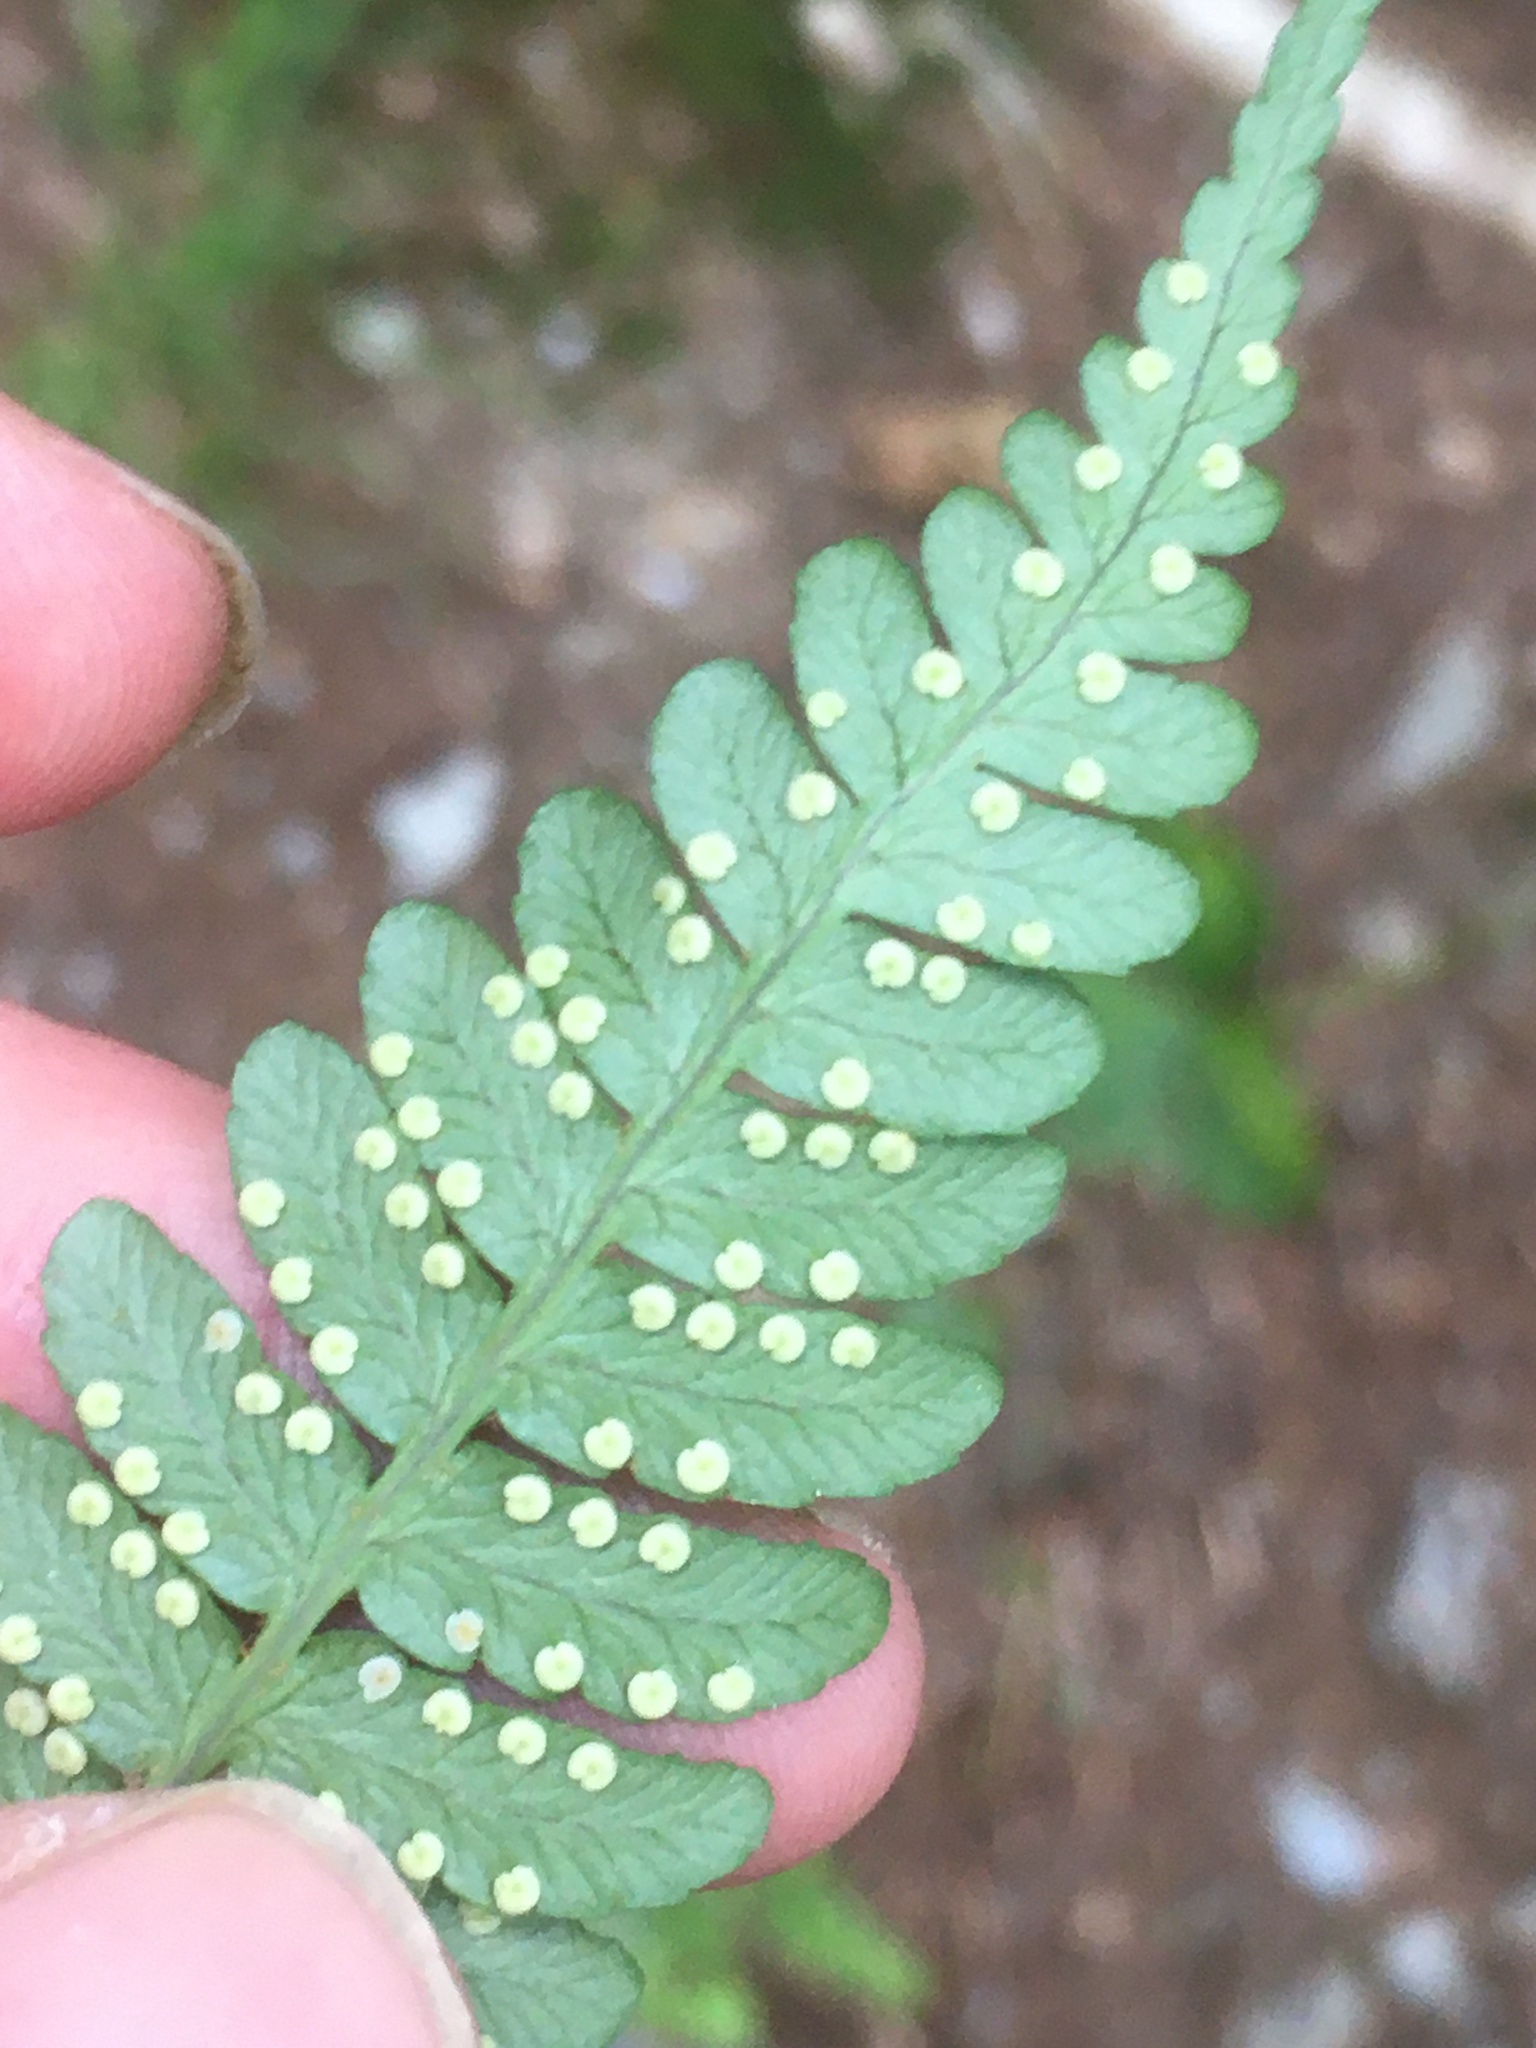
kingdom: Plantae
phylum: Tracheophyta
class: Polypodiopsida
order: Polypodiales
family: Dryopteridaceae
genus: Dryopteris
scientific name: Dryopteris marginalis
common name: Marginal wood fern
